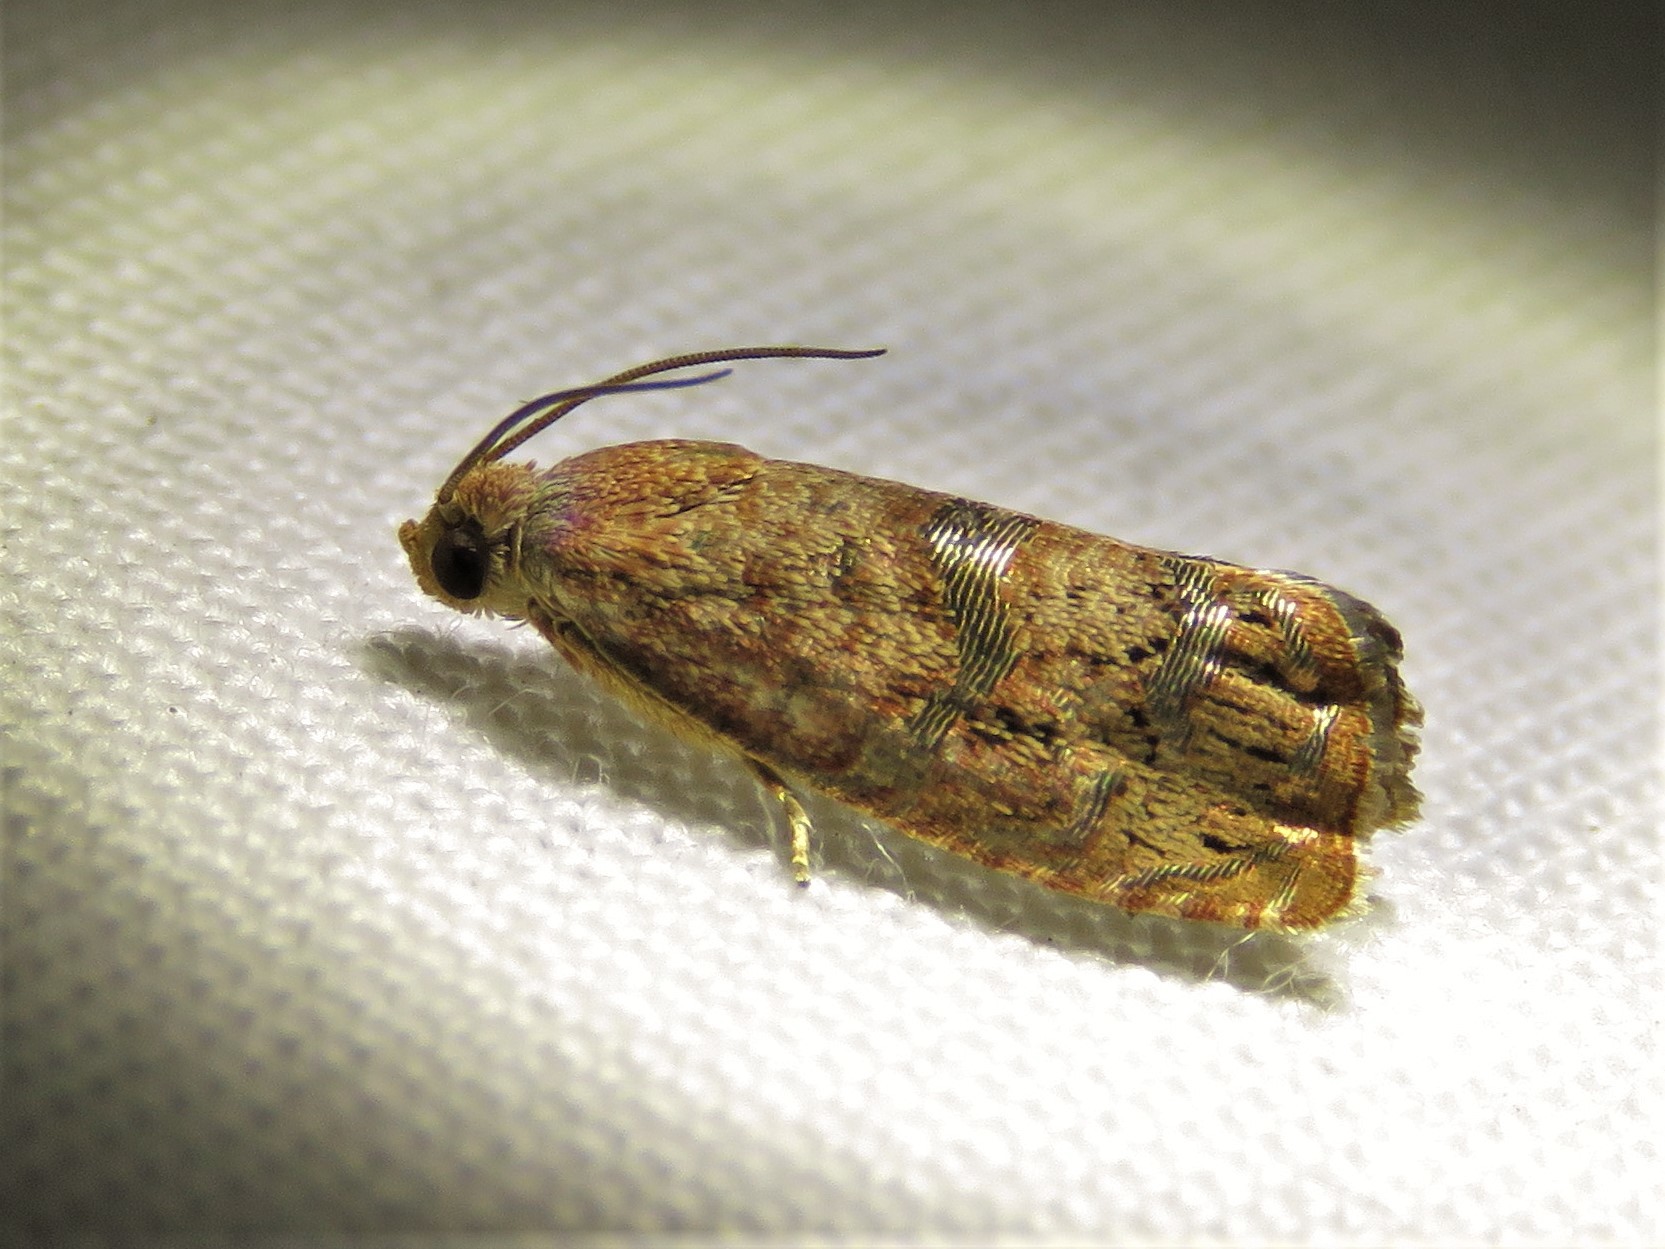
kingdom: Animalia
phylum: Arthropoda
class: Insecta
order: Lepidoptera
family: Tortricidae
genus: Cydia
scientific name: Cydia latiferreana
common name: Filbertworm moth
